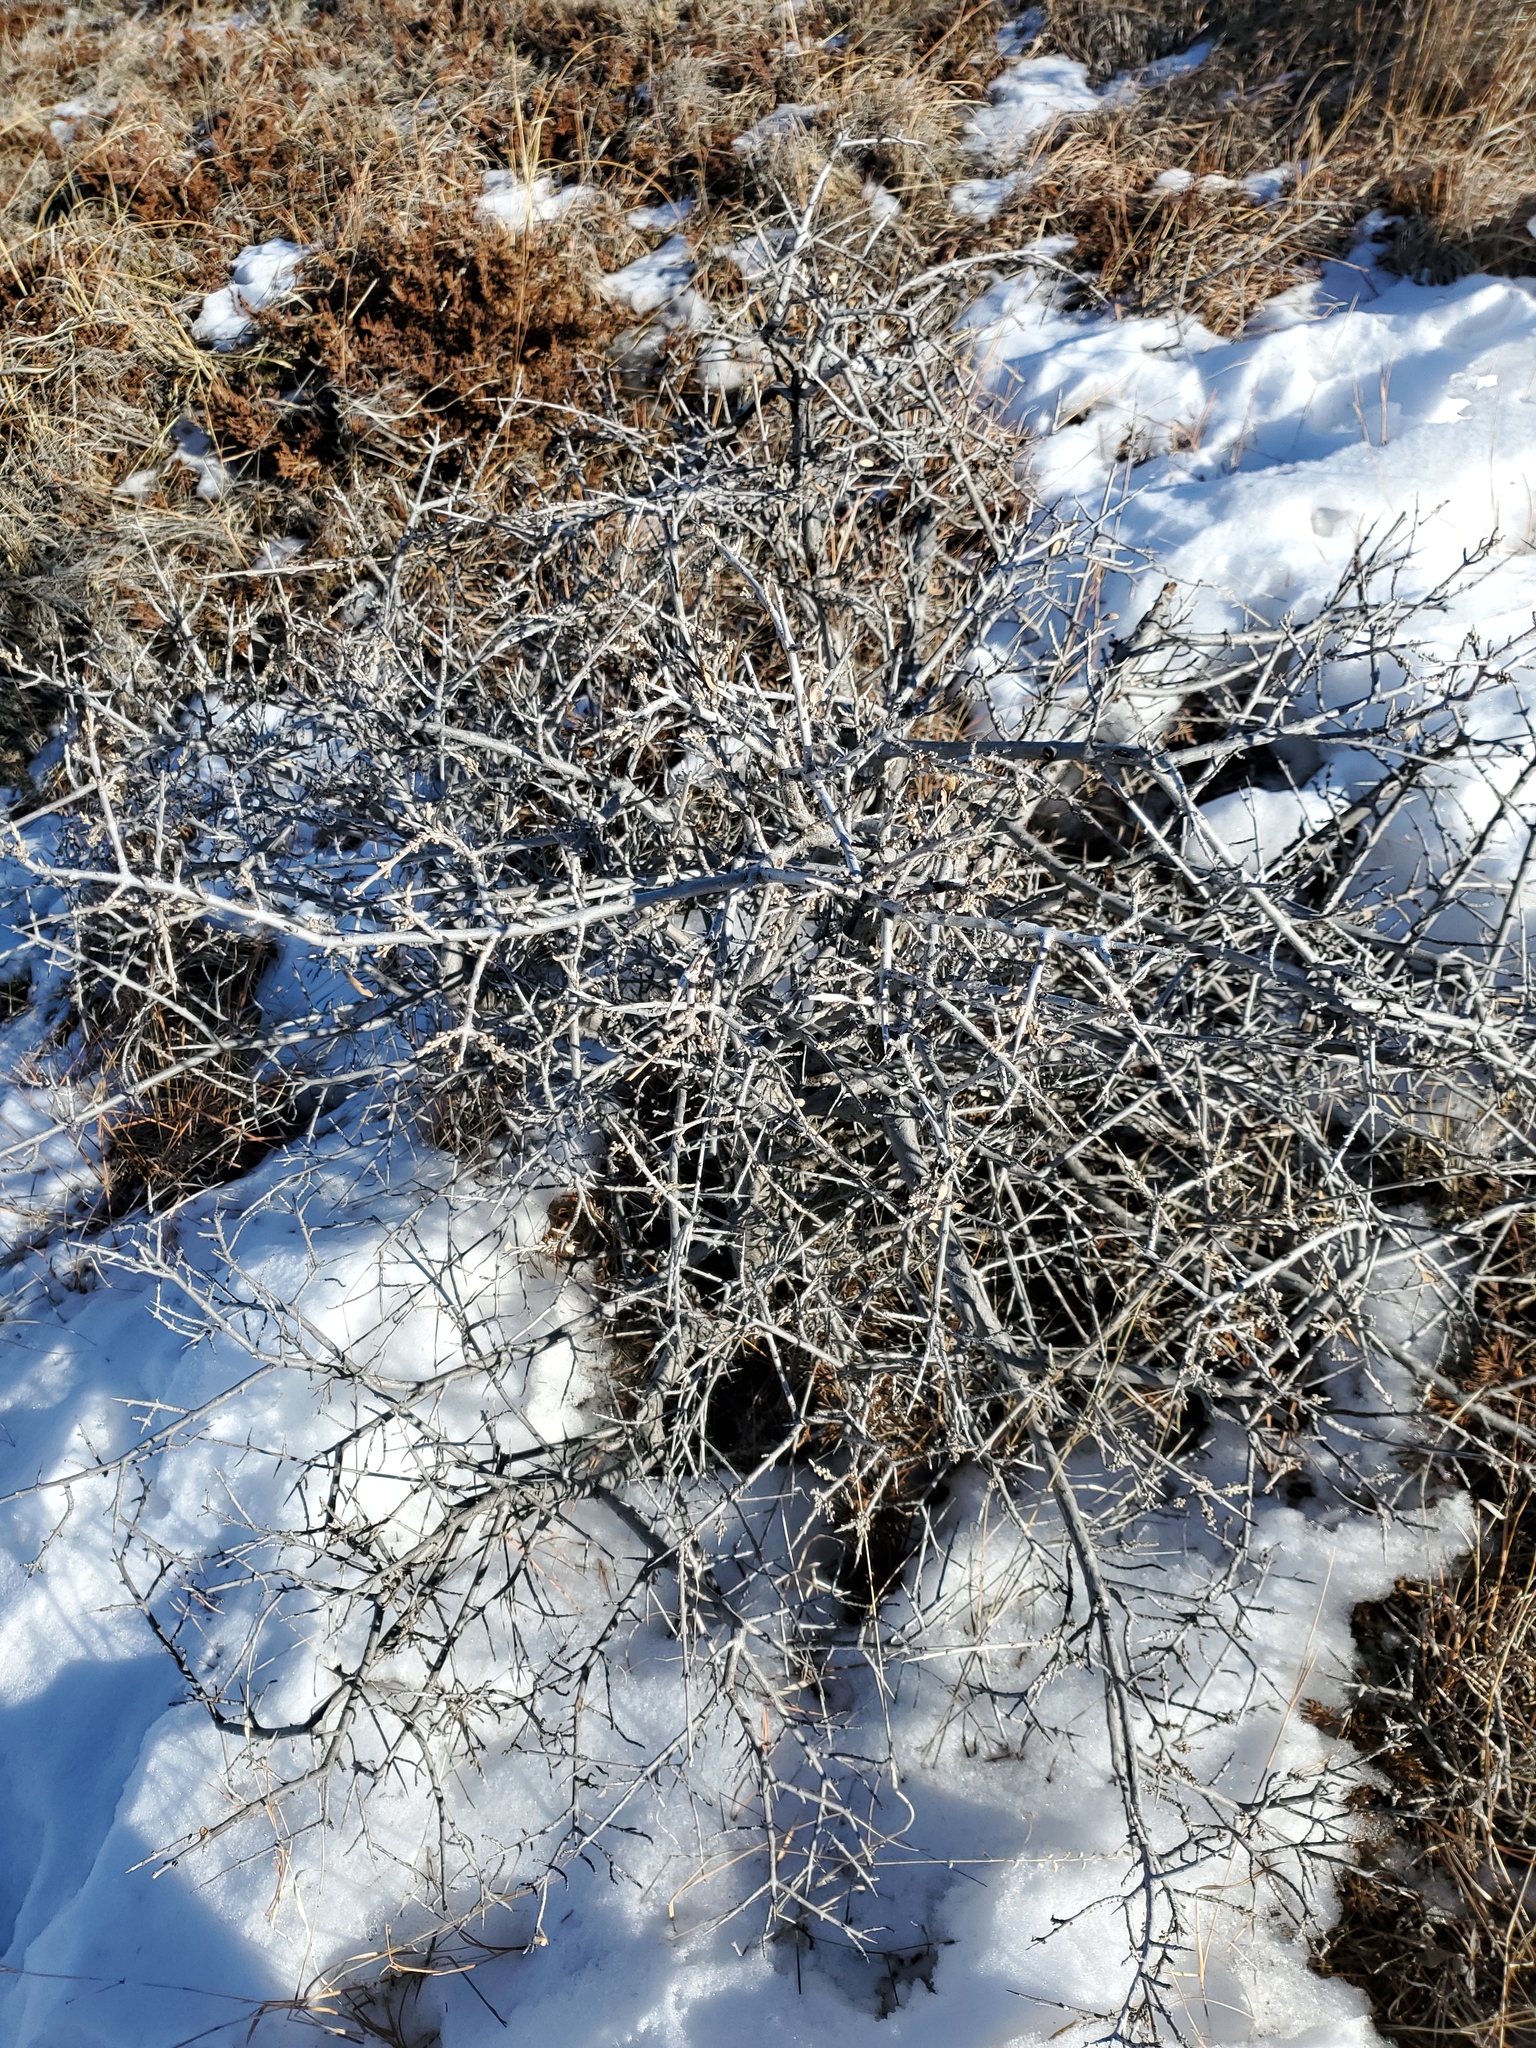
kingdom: Plantae
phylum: Tracheophyta
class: Magnoliopsida
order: Rosales
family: Elaeagnaceae
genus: Shepherdia
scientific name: Shepherdia argentea
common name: Silver buffaloberry
